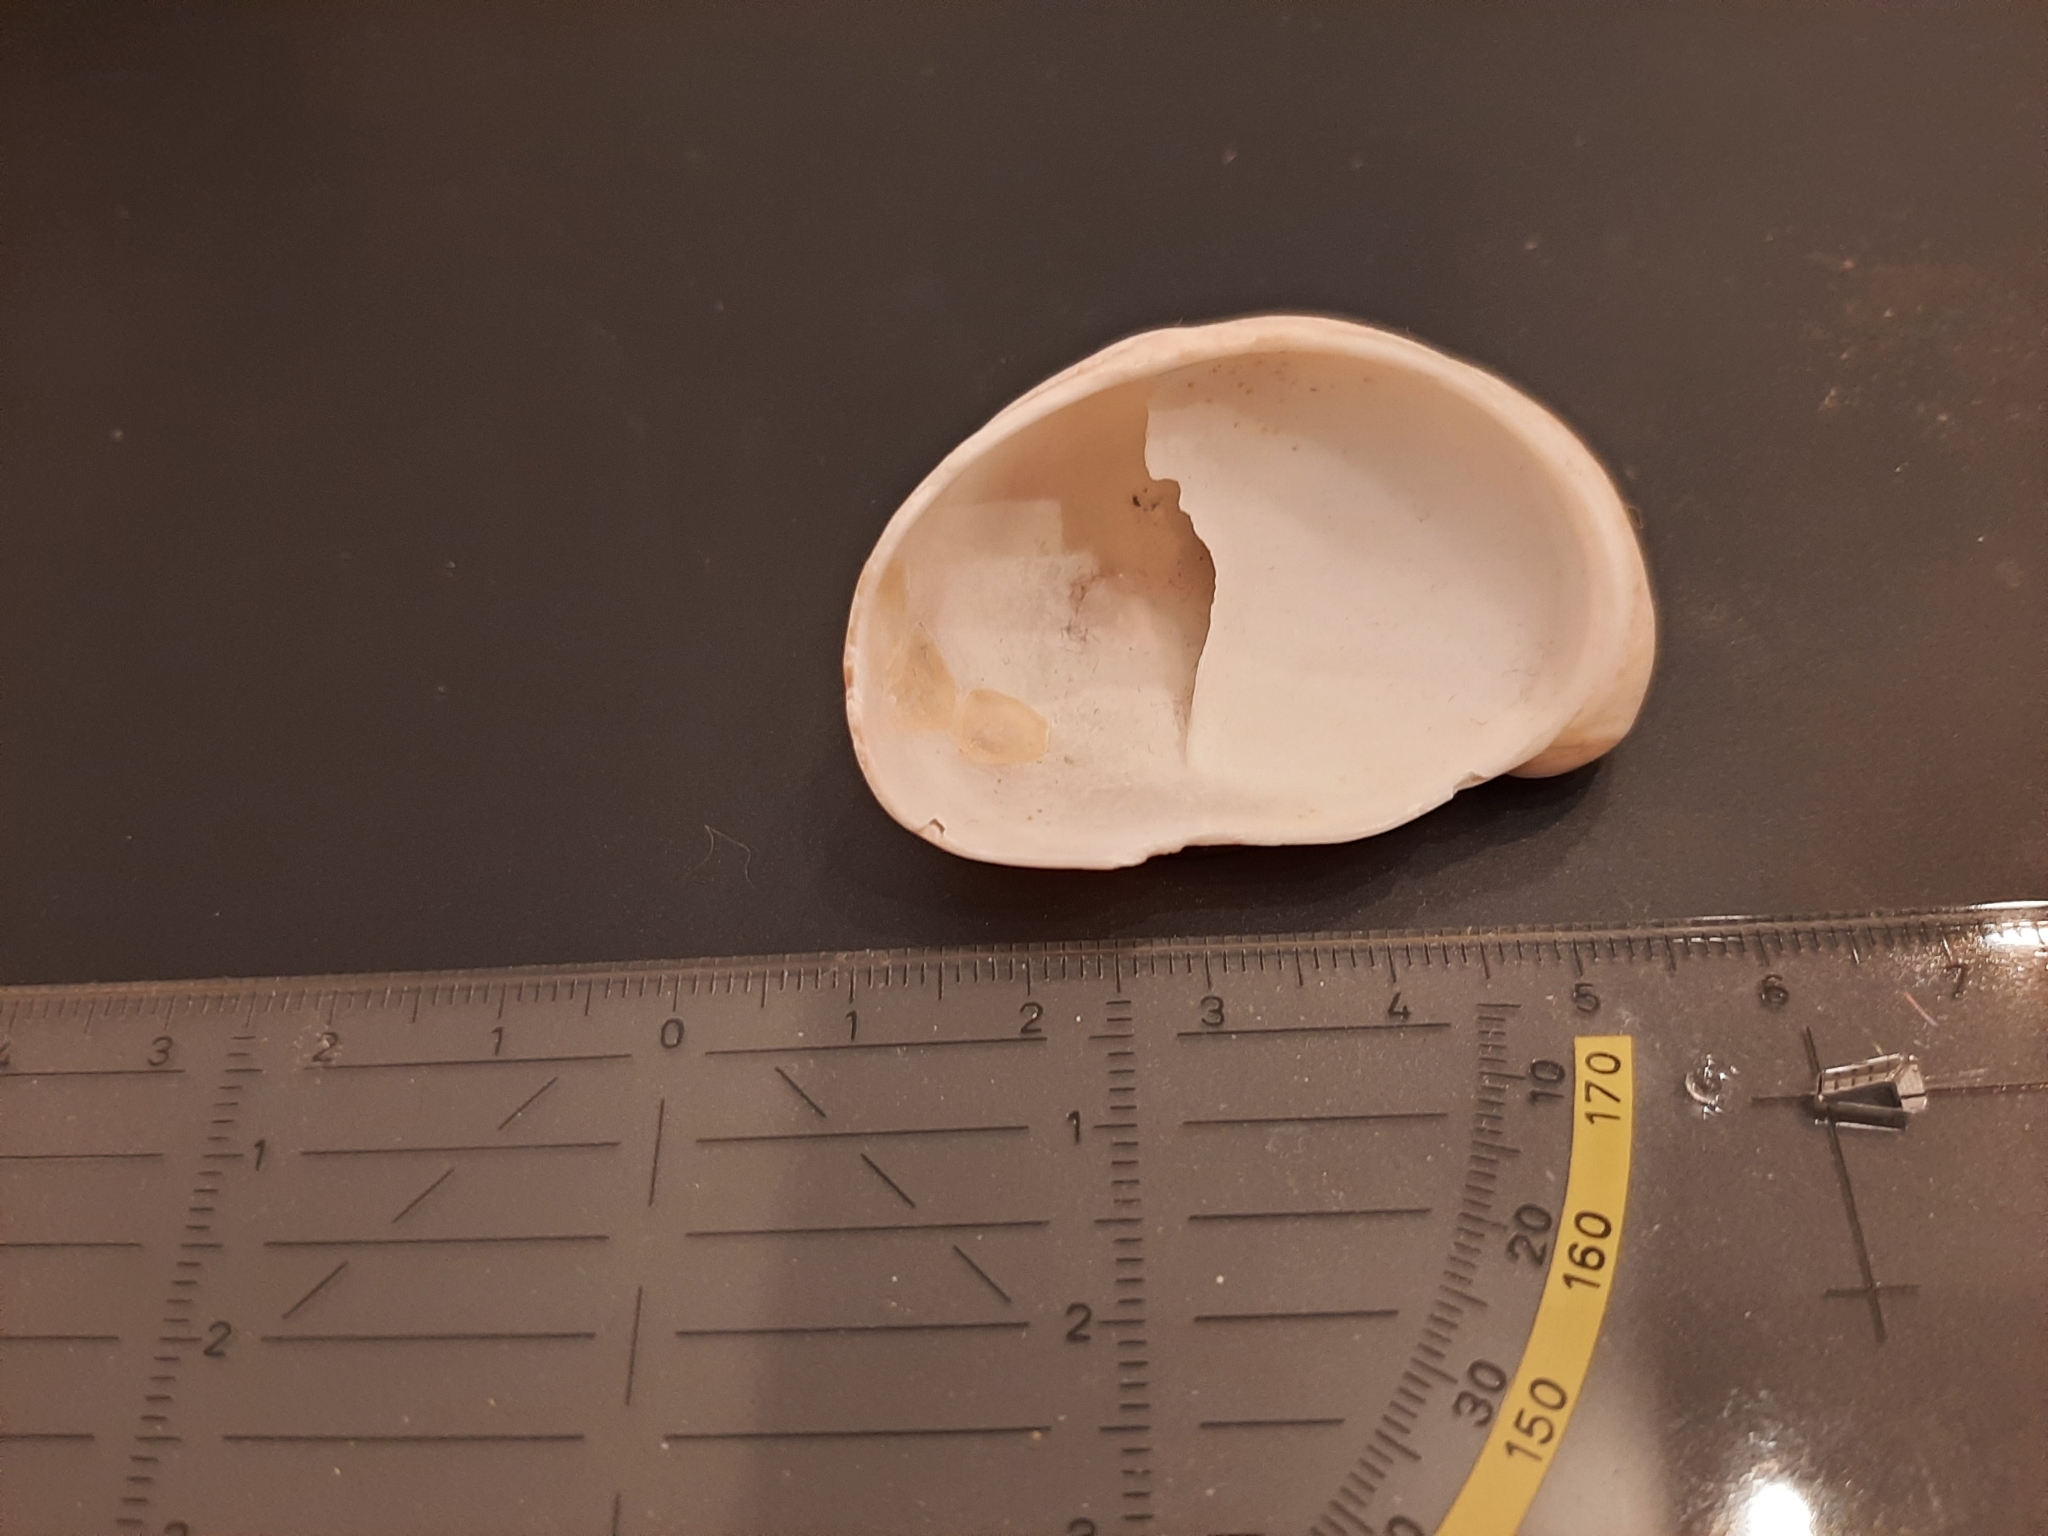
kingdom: Animalia
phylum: Mollusca
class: Gastropoda
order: Littorinimorpha
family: Calyptraeidae
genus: Crepidula
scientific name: Crepidula fornicata
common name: Slipper limpet
